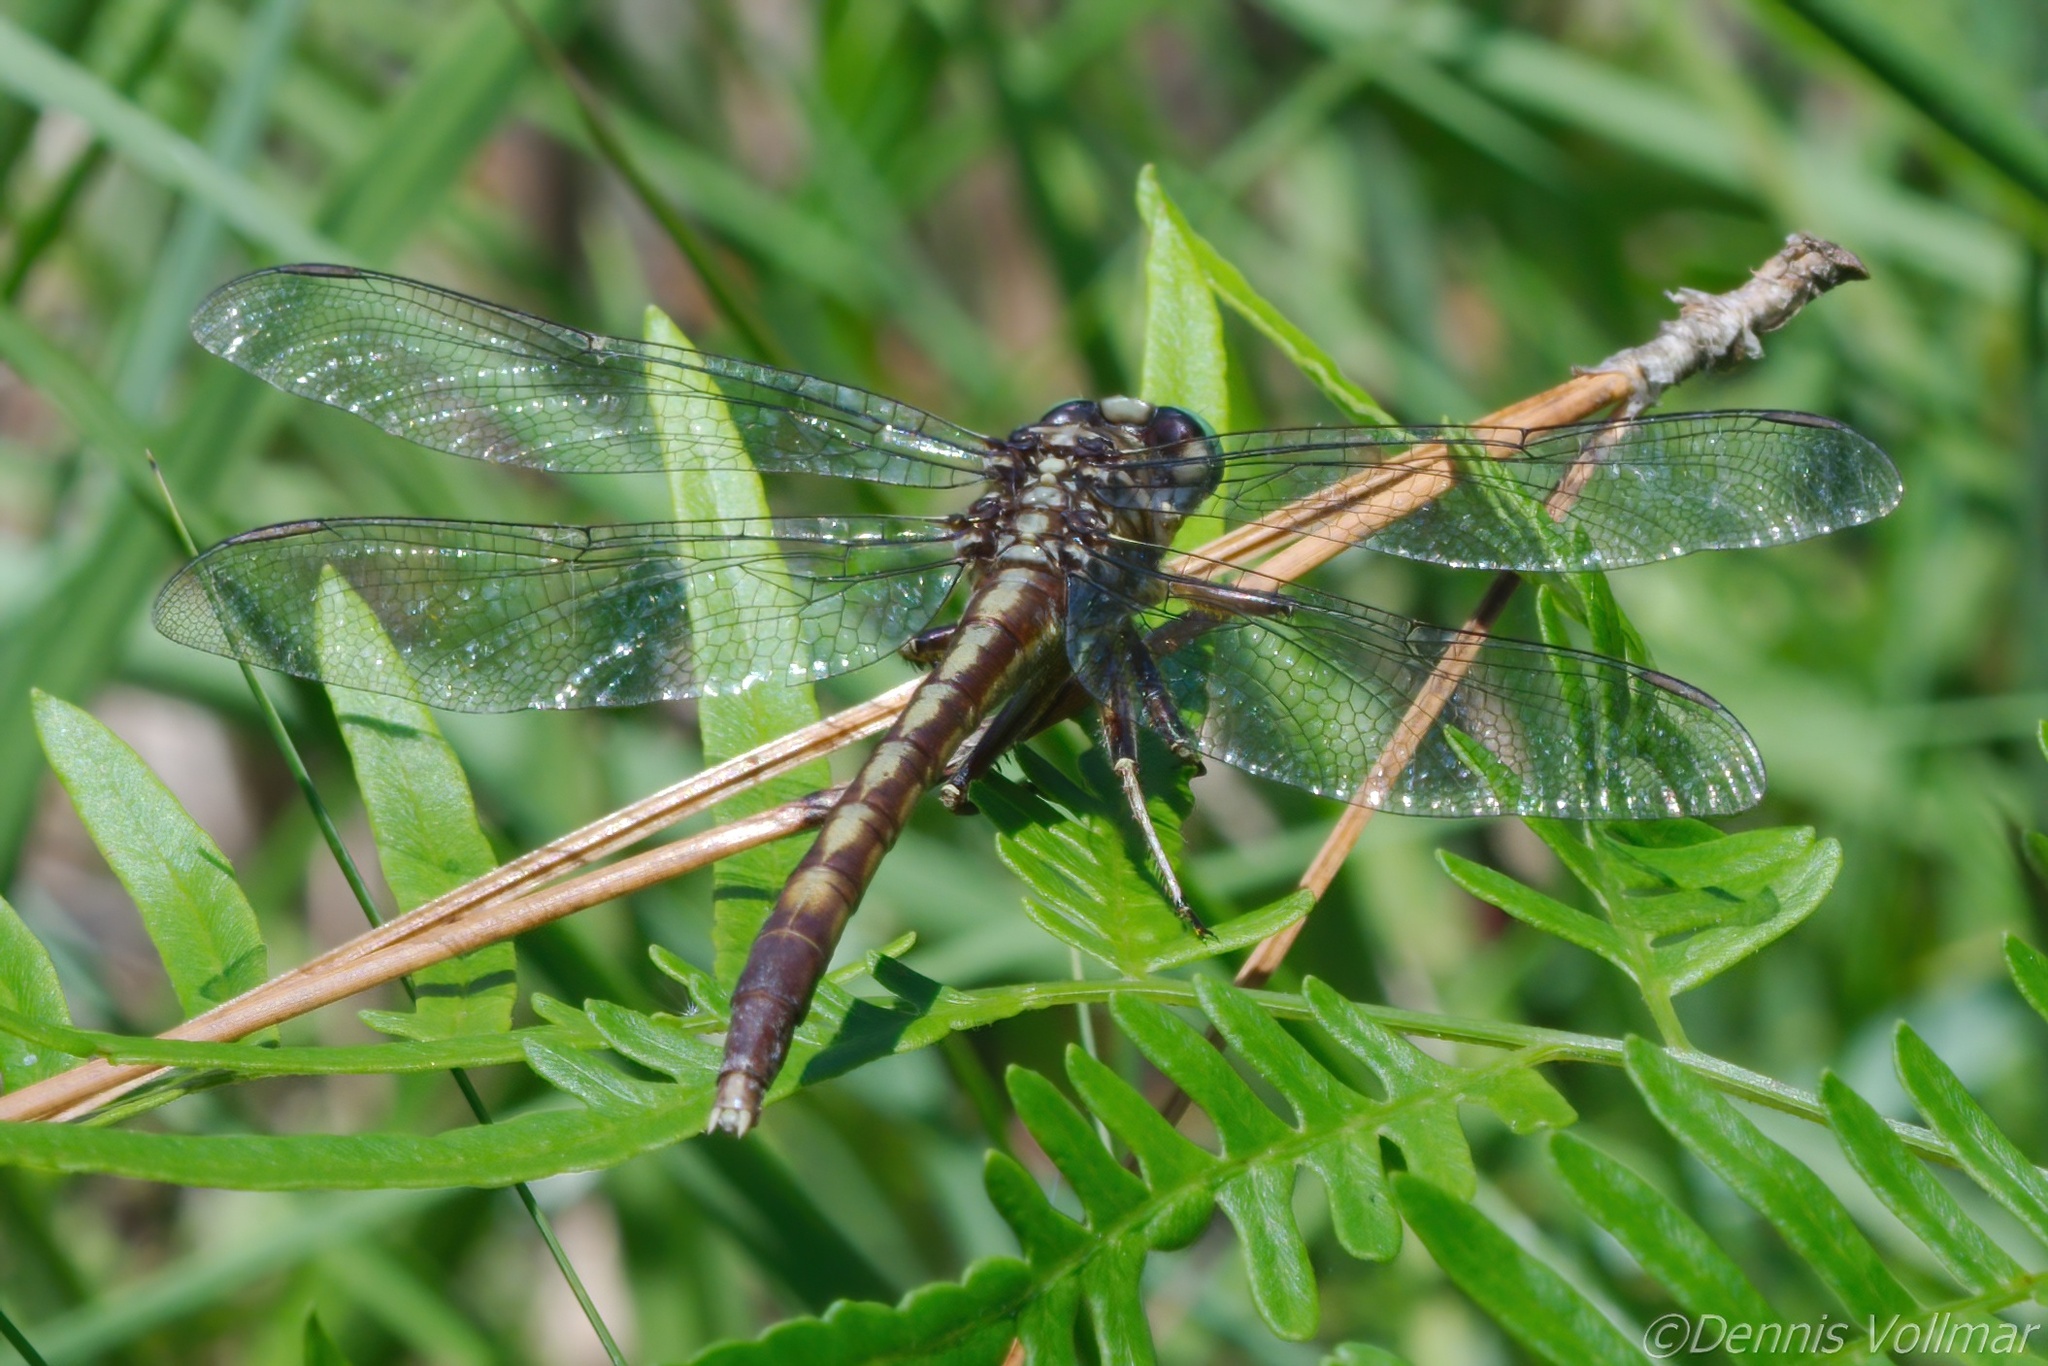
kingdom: Animalia
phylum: Arthropoda
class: Insecta
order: Odonata
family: Gomphidae
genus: Arigomphus
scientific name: Arigomphus pallidus
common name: Gray-green clubtail
